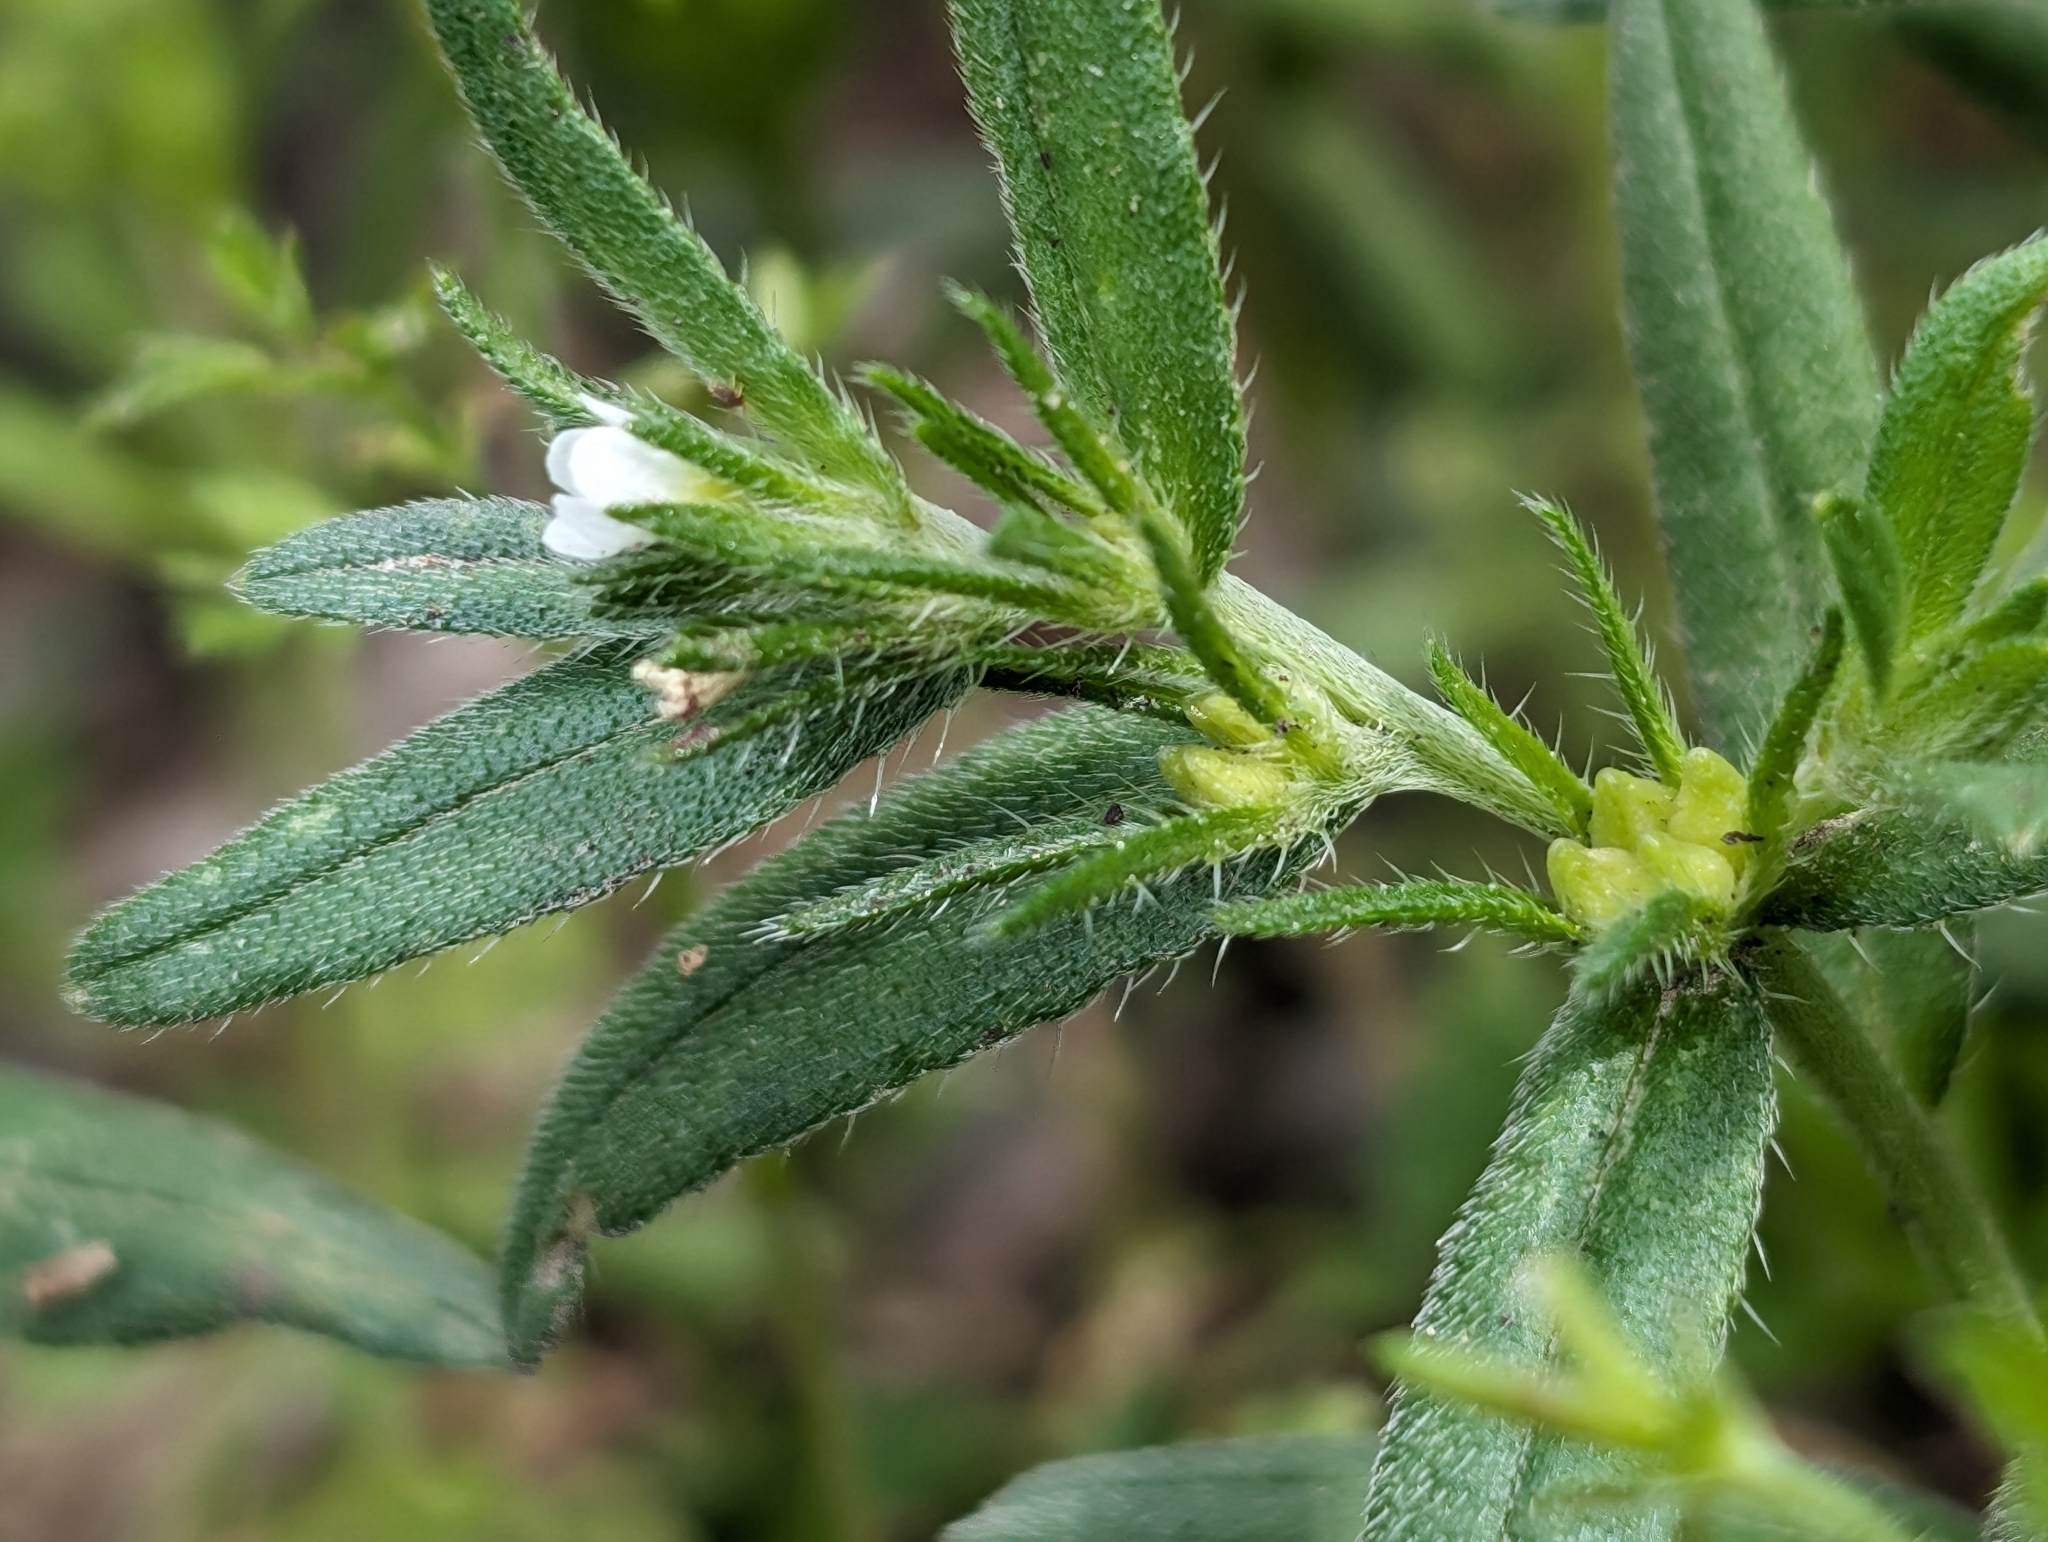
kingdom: Plantae
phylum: Tracheophyta
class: Magnoliopsida
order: Boraginales
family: Boraginaceae
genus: Buglossoides
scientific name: Buglossoides arvensis
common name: Corn gromwell
